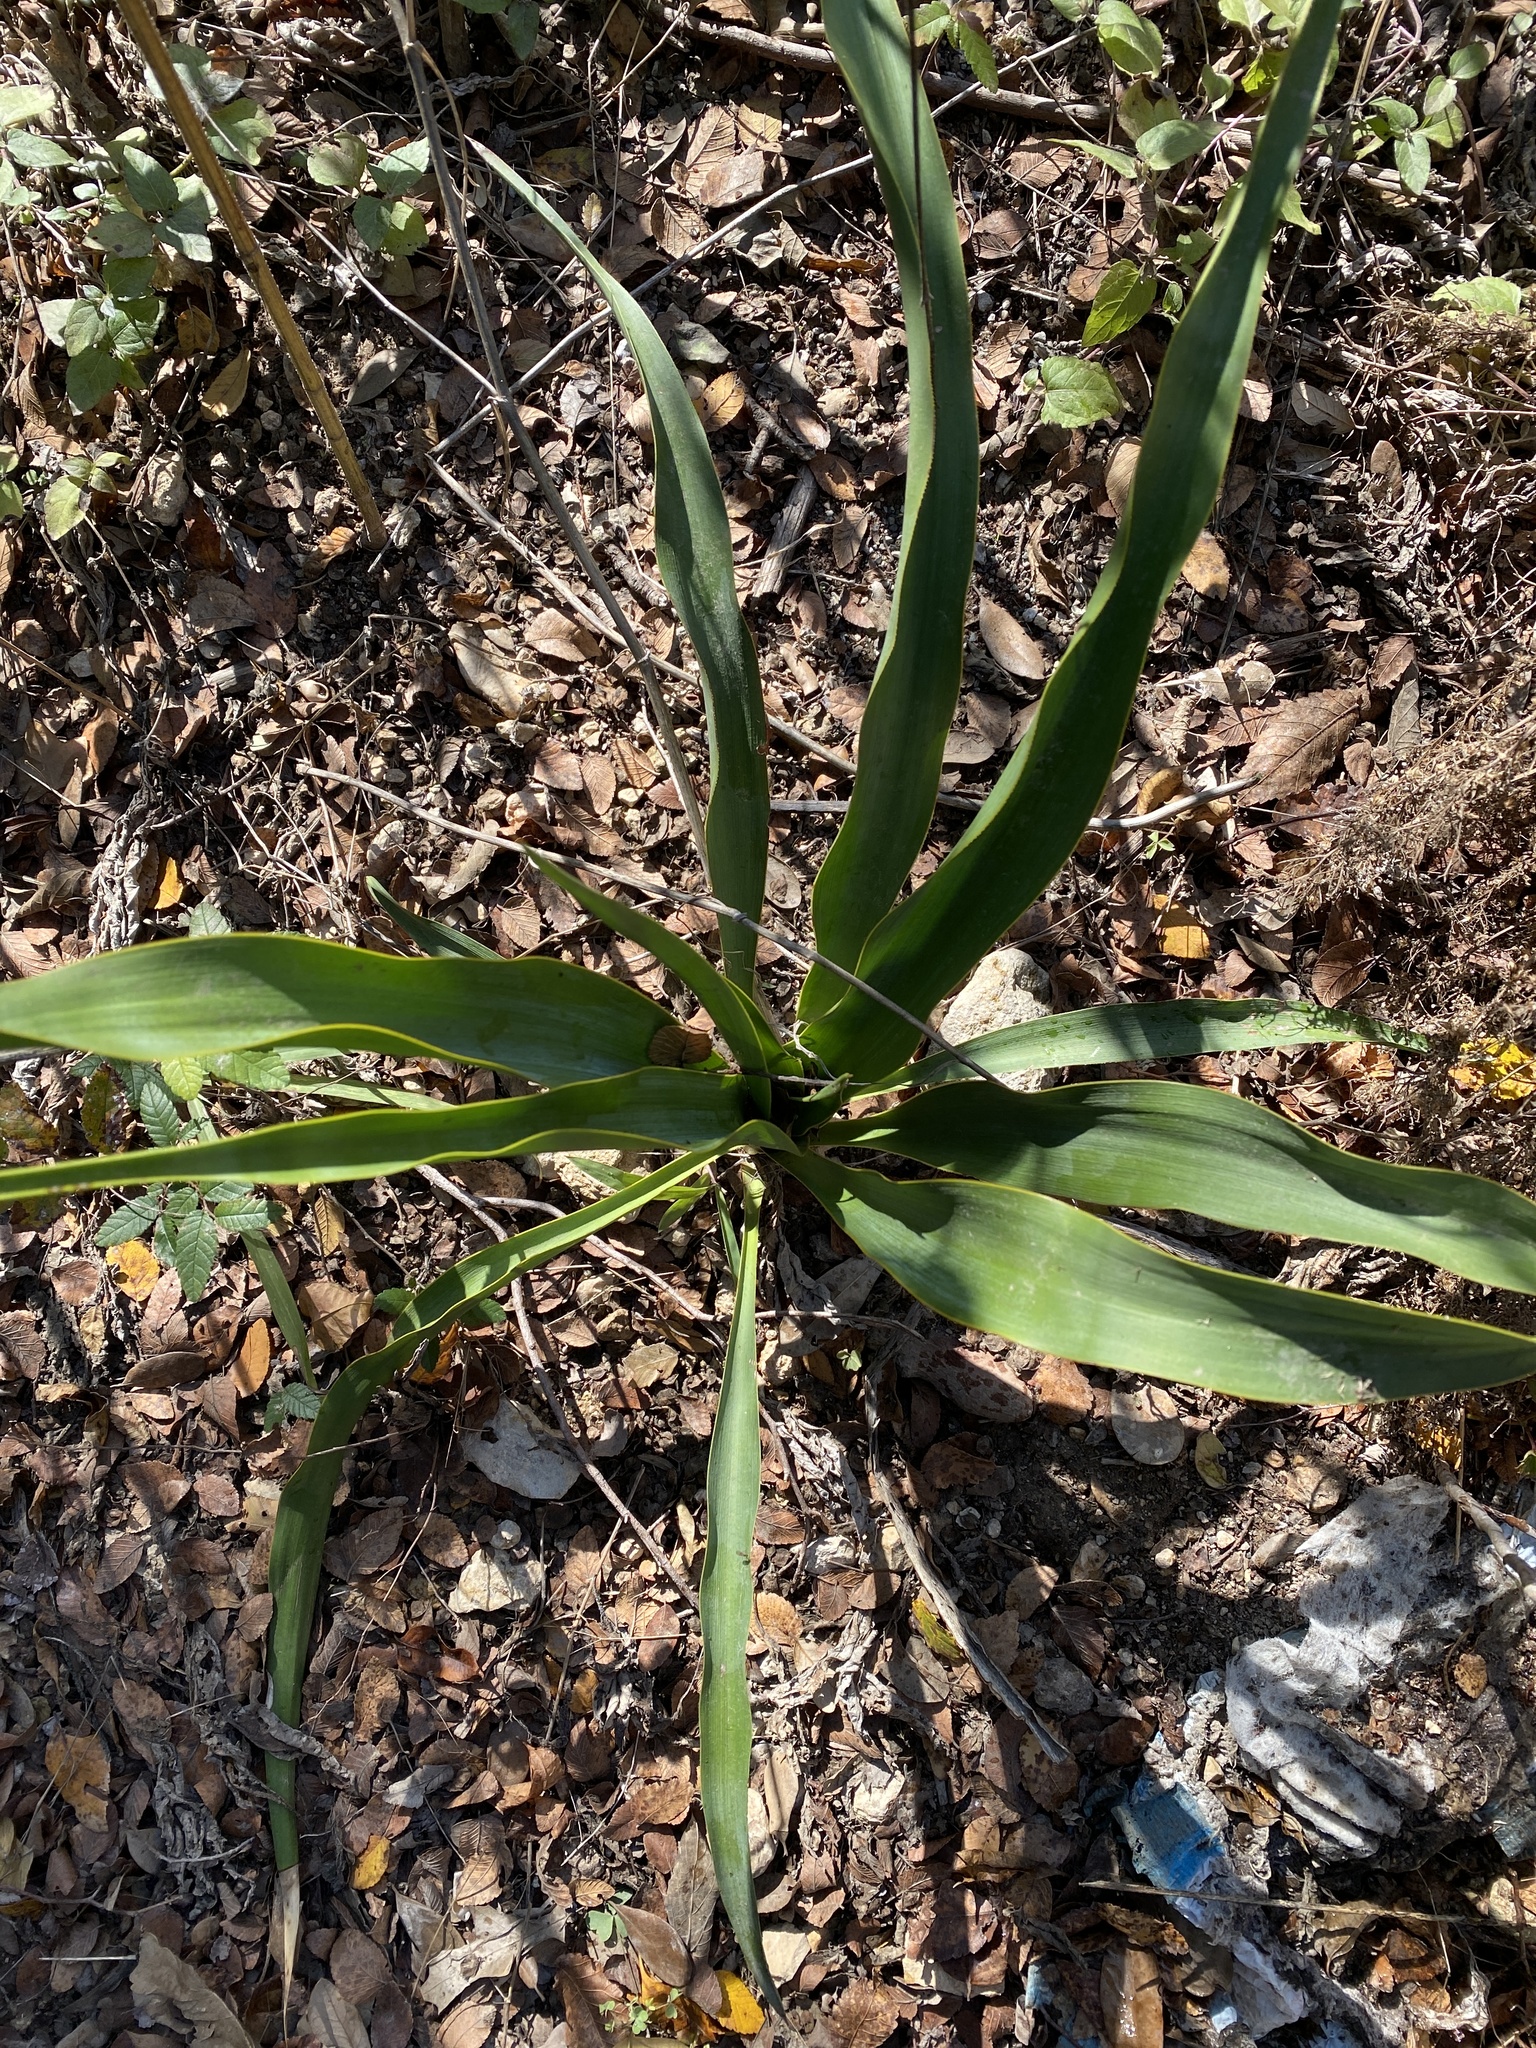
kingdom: Plantae
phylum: Tracheophyta
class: Liliopsida
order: Asparagales
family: Asparagaceae
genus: Yucca
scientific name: Yucca rupicola
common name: Twisted-leaf spanish-dagger
